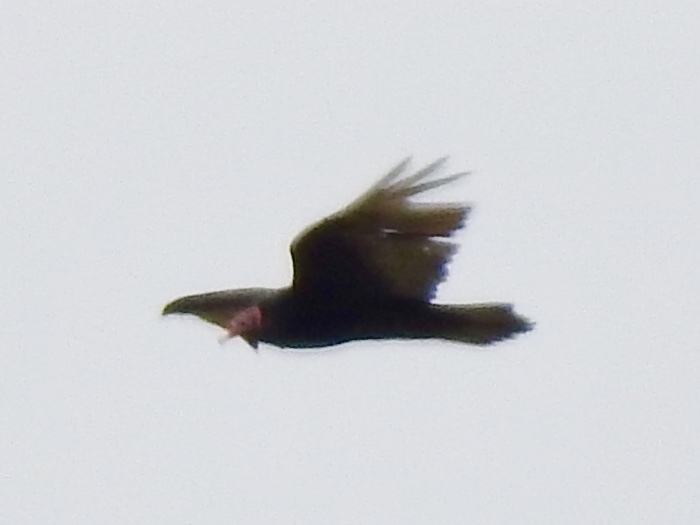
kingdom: Animalia
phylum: Chordata
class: Aves
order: Accipitriformes
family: Cathartidae
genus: Cathartes
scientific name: Cathartes aura
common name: Turkey vulture
